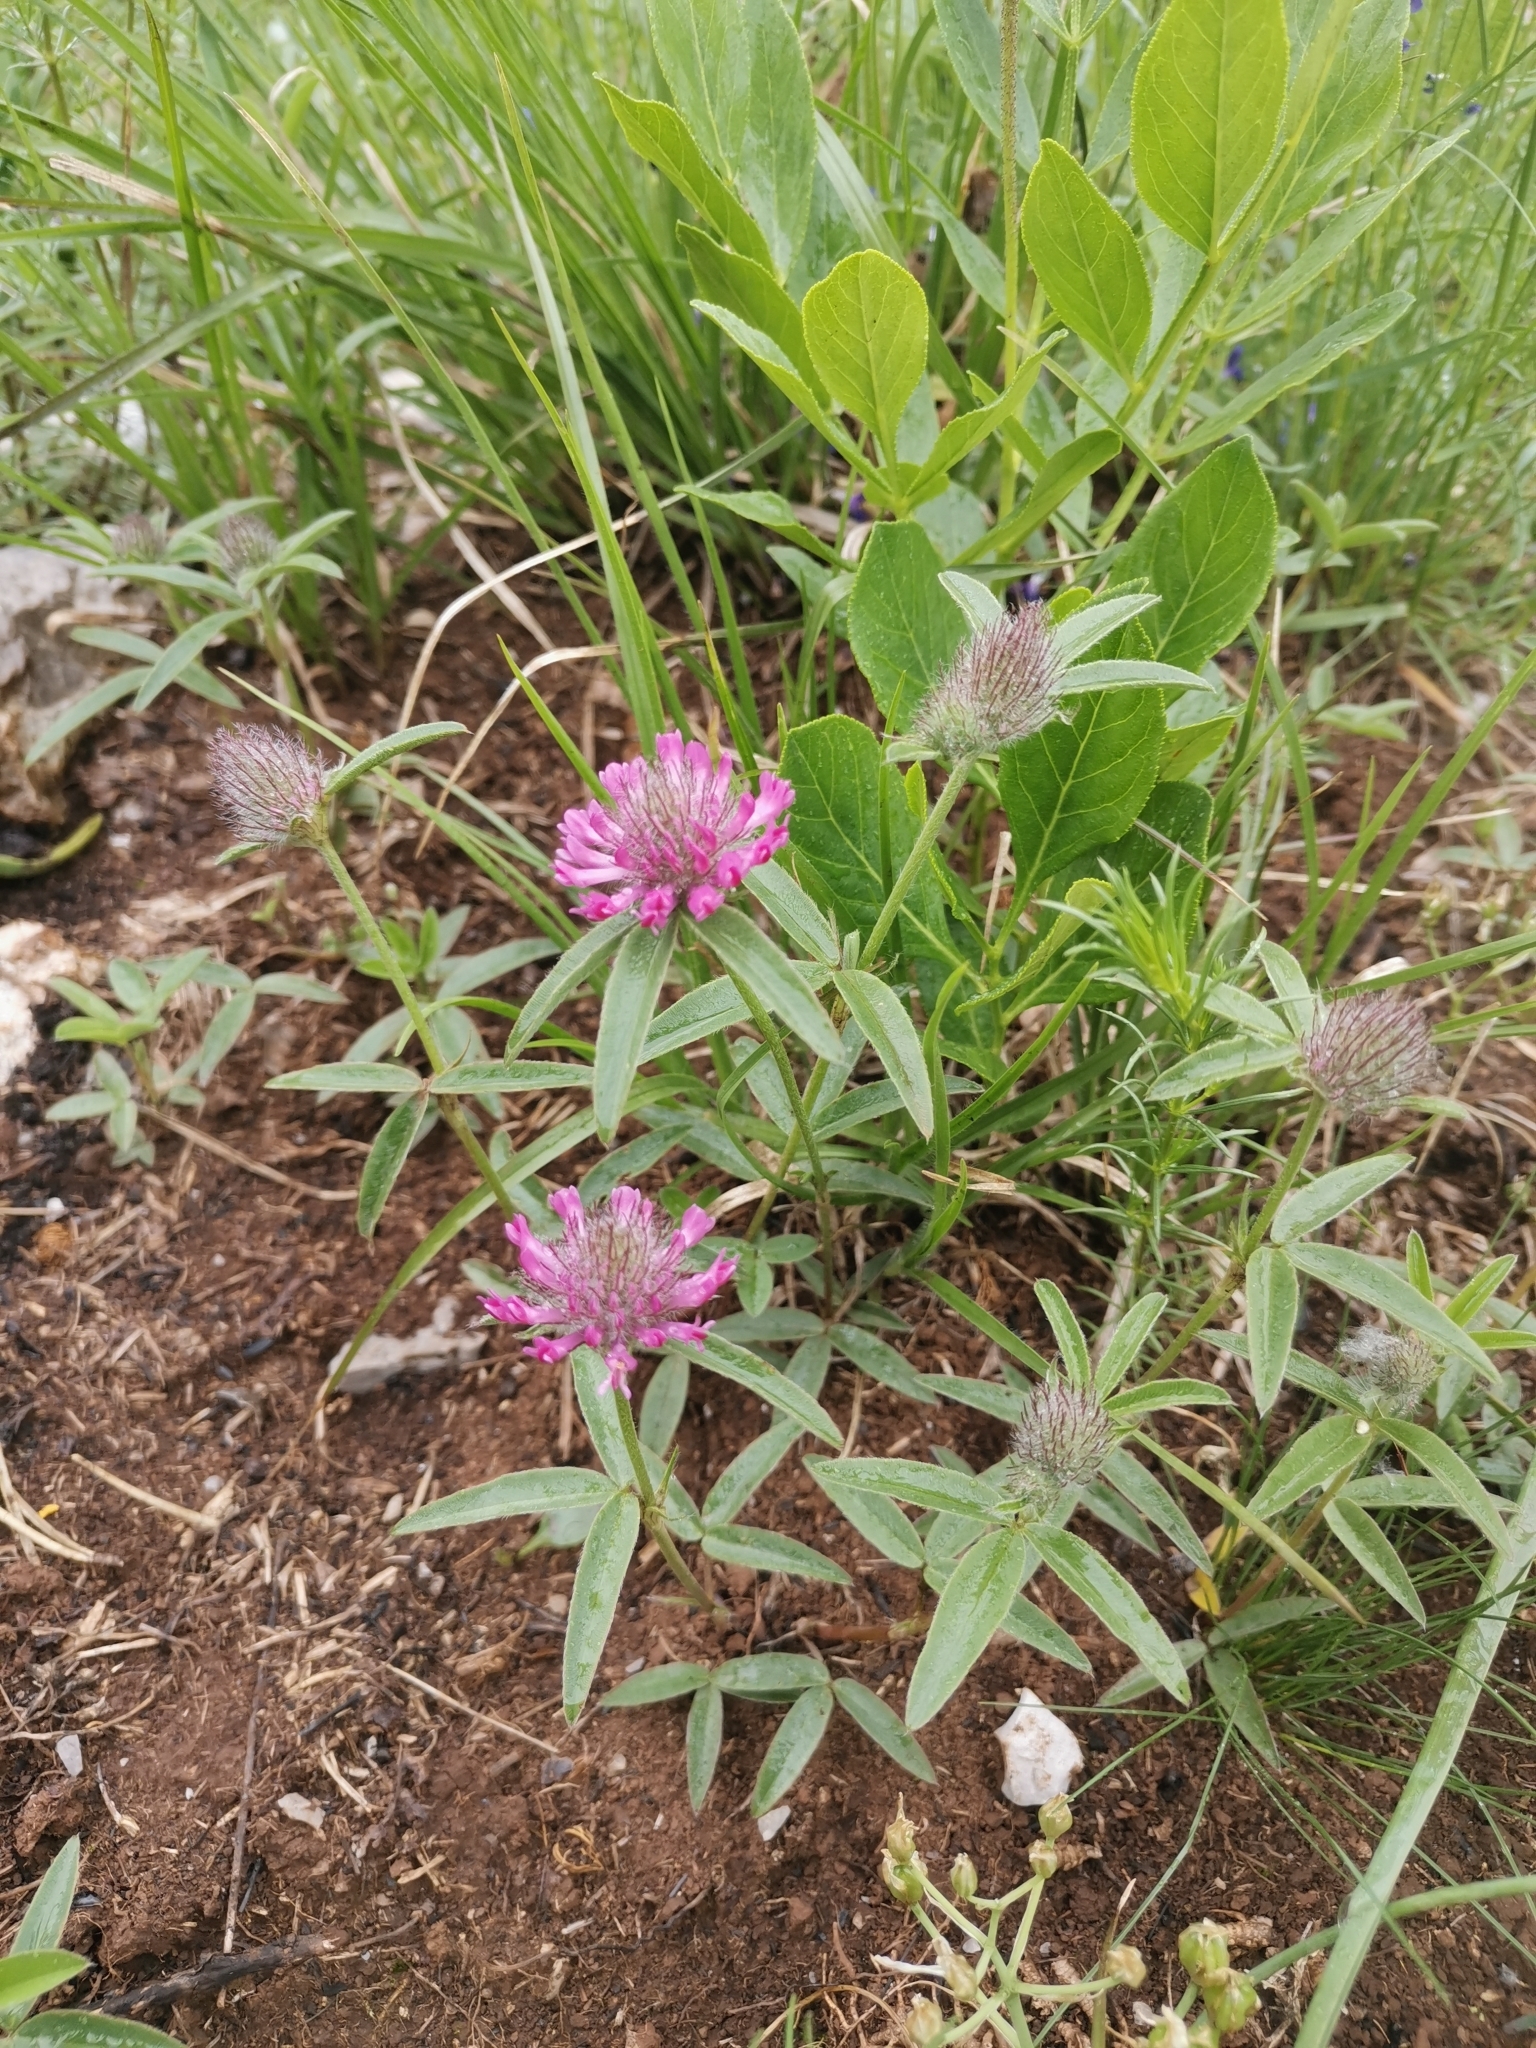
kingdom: Plantae
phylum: Tracheophyta
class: Magnoliopsida
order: Fabales
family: Fabaceae
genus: Trifolium
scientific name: Trifolium alpestre
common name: Owl-head clover
